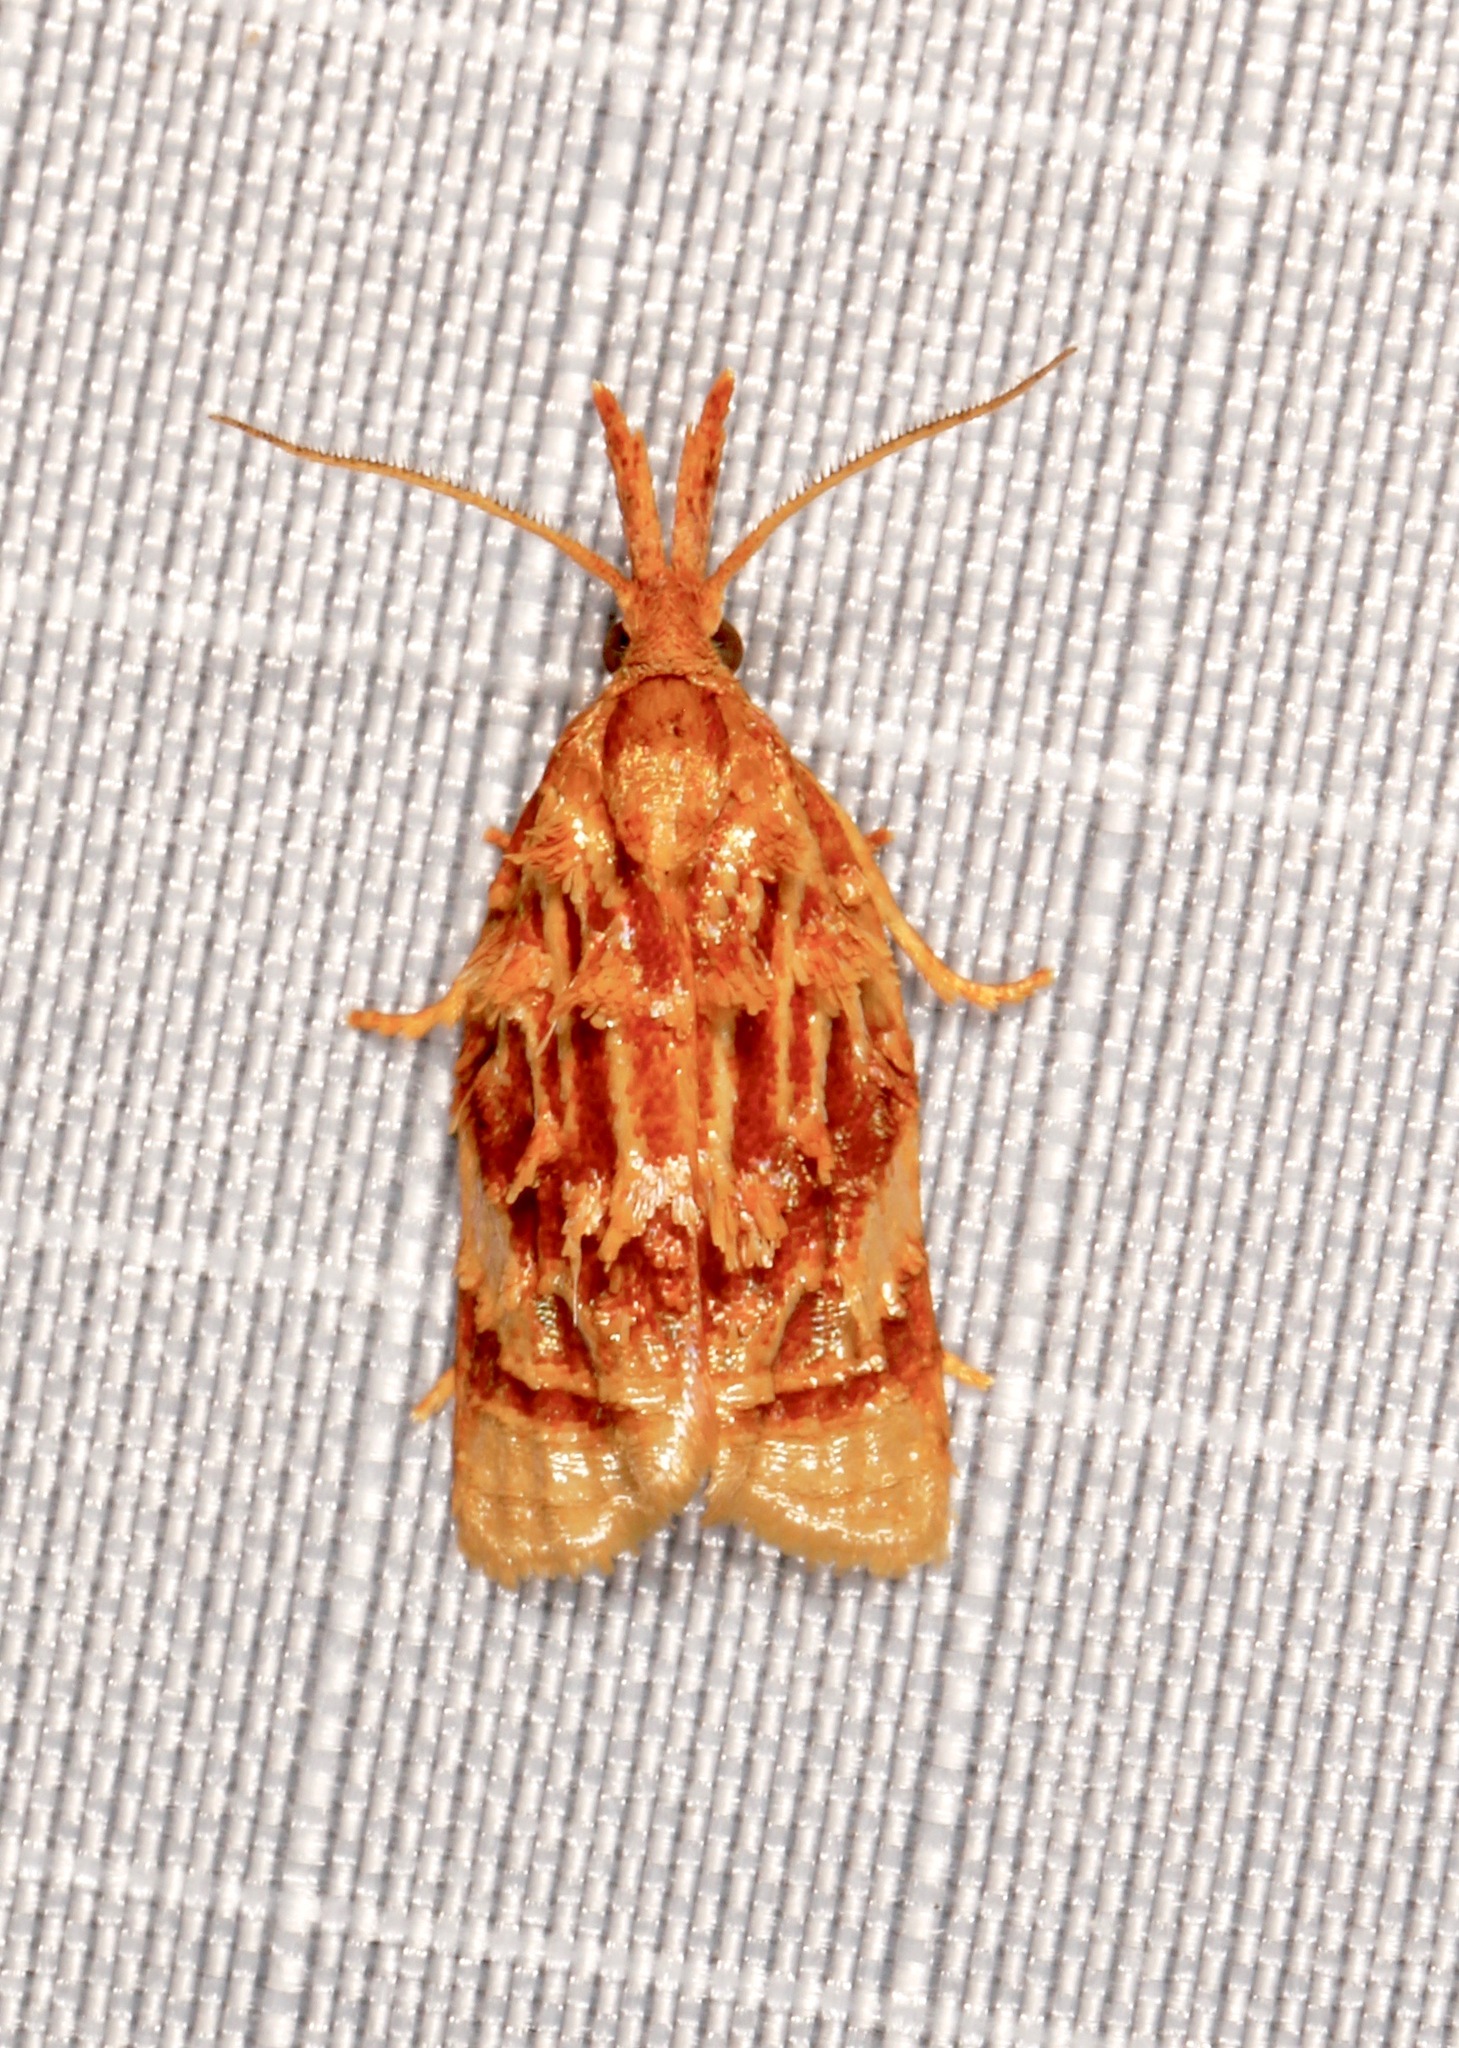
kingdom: Animalia
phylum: Arthropoda
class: Insecta
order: Lepidoptera
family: Tortricidae
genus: Niasoma
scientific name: Niasoma metallicana
